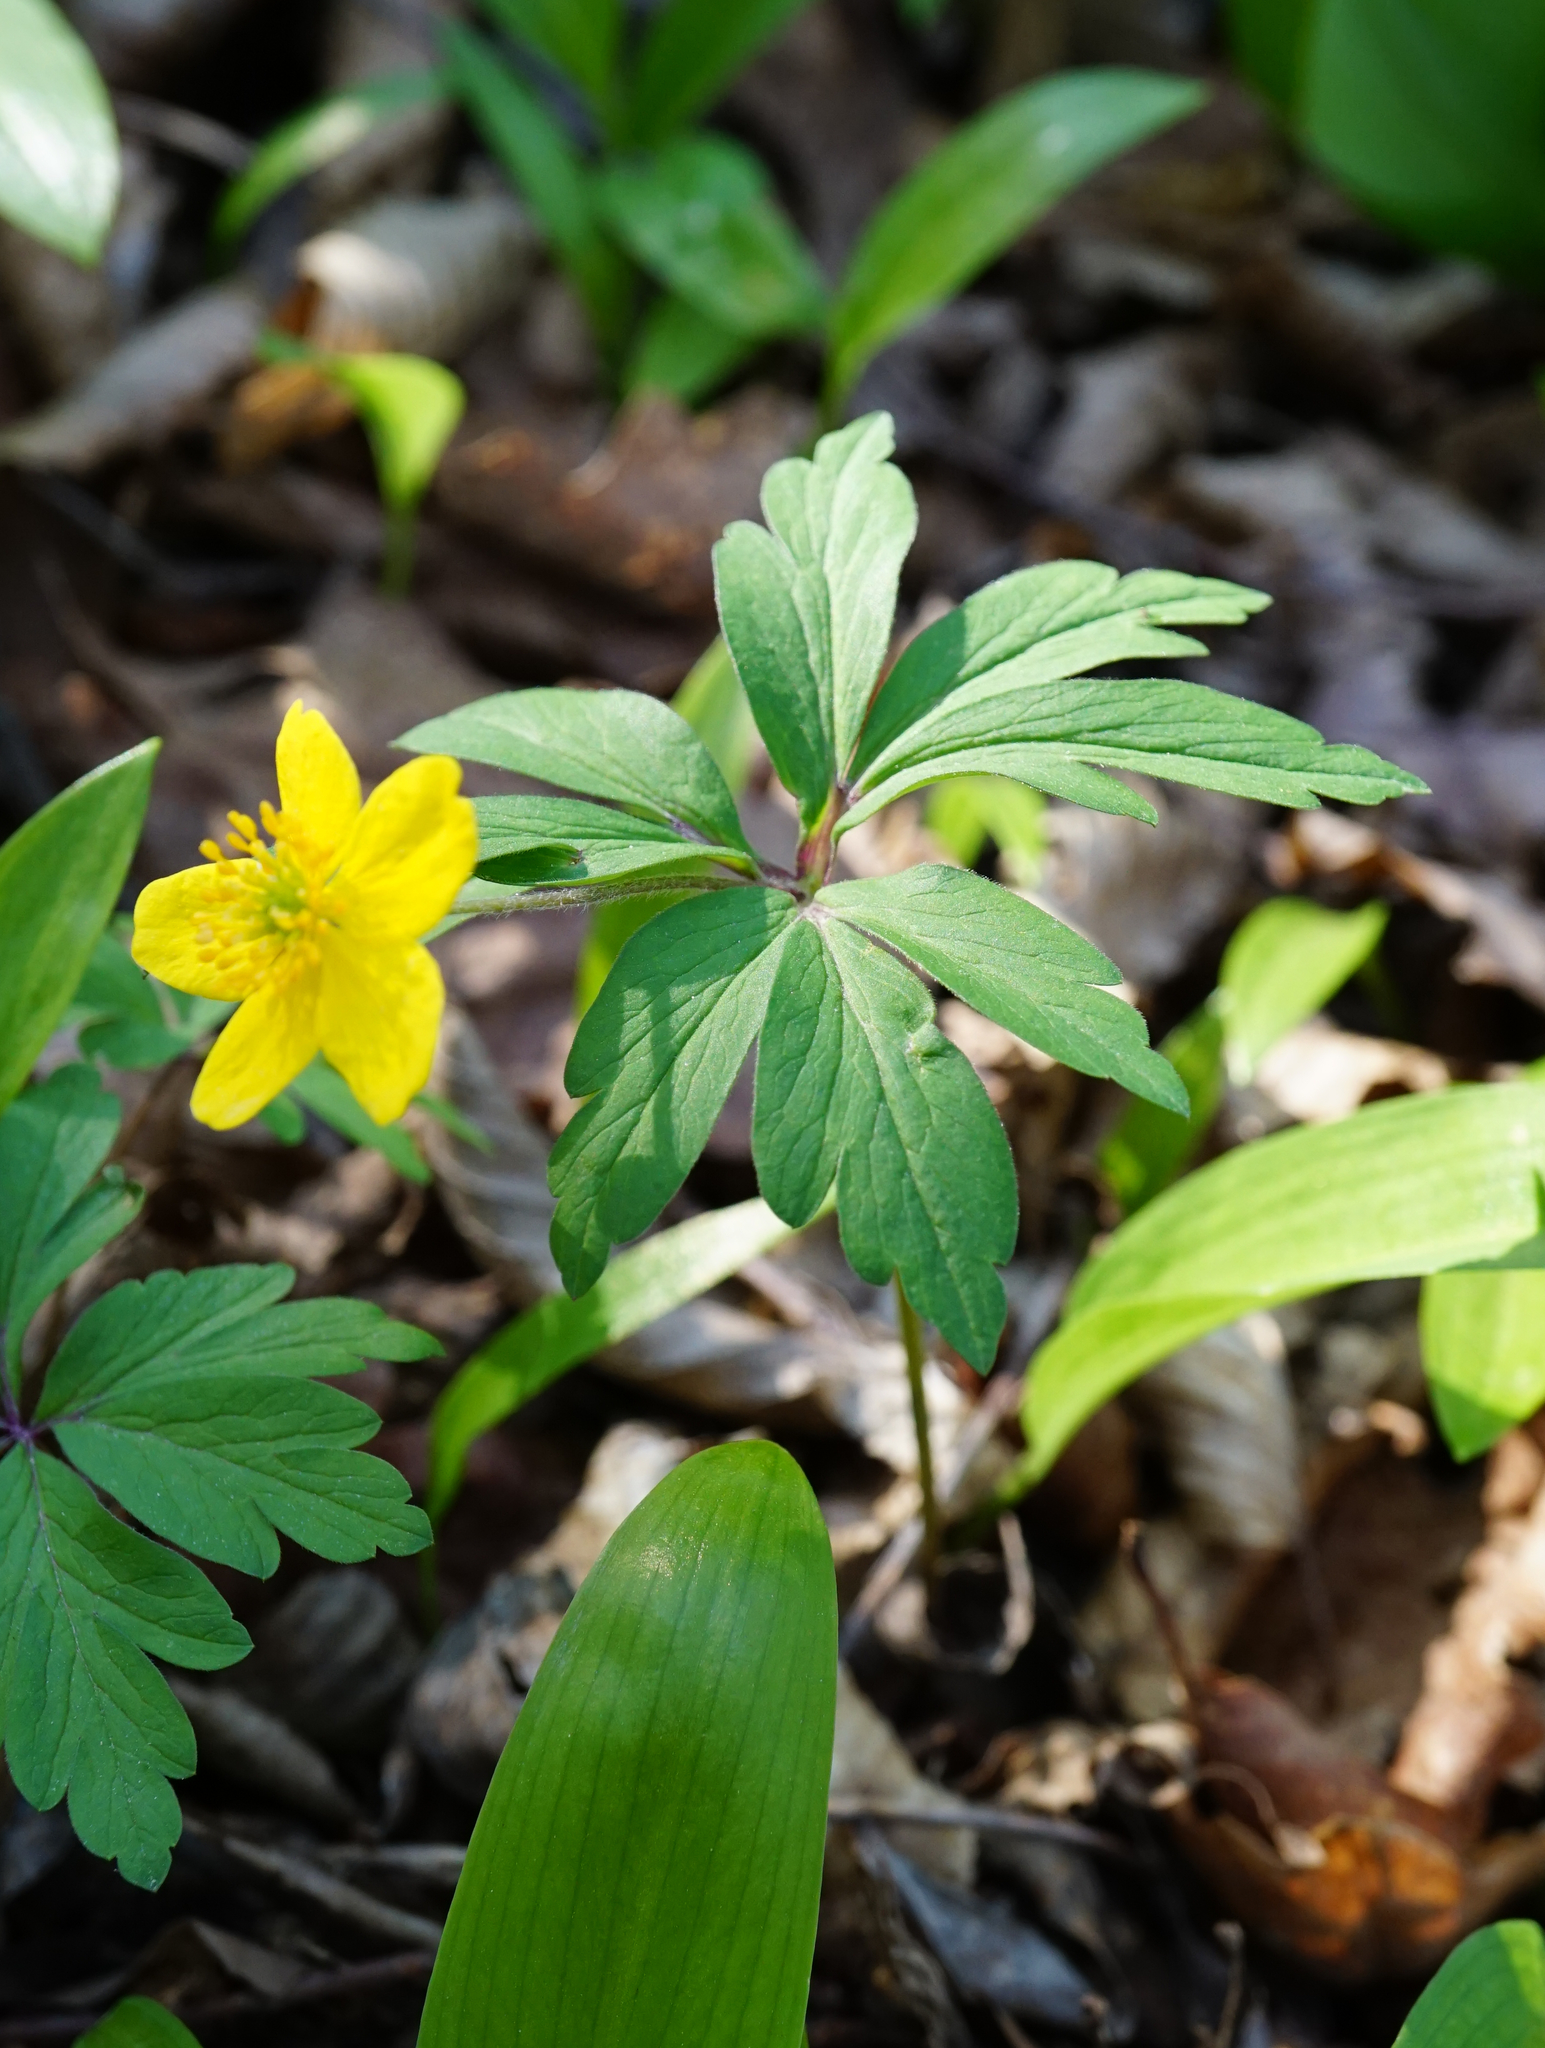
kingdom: Plantae
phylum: Tracheophyta
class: Magnoliopsida
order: Ranunculales
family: Ranunculaceae
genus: Anemone
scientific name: Anemone ranunculoides
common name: Yellow anemone
